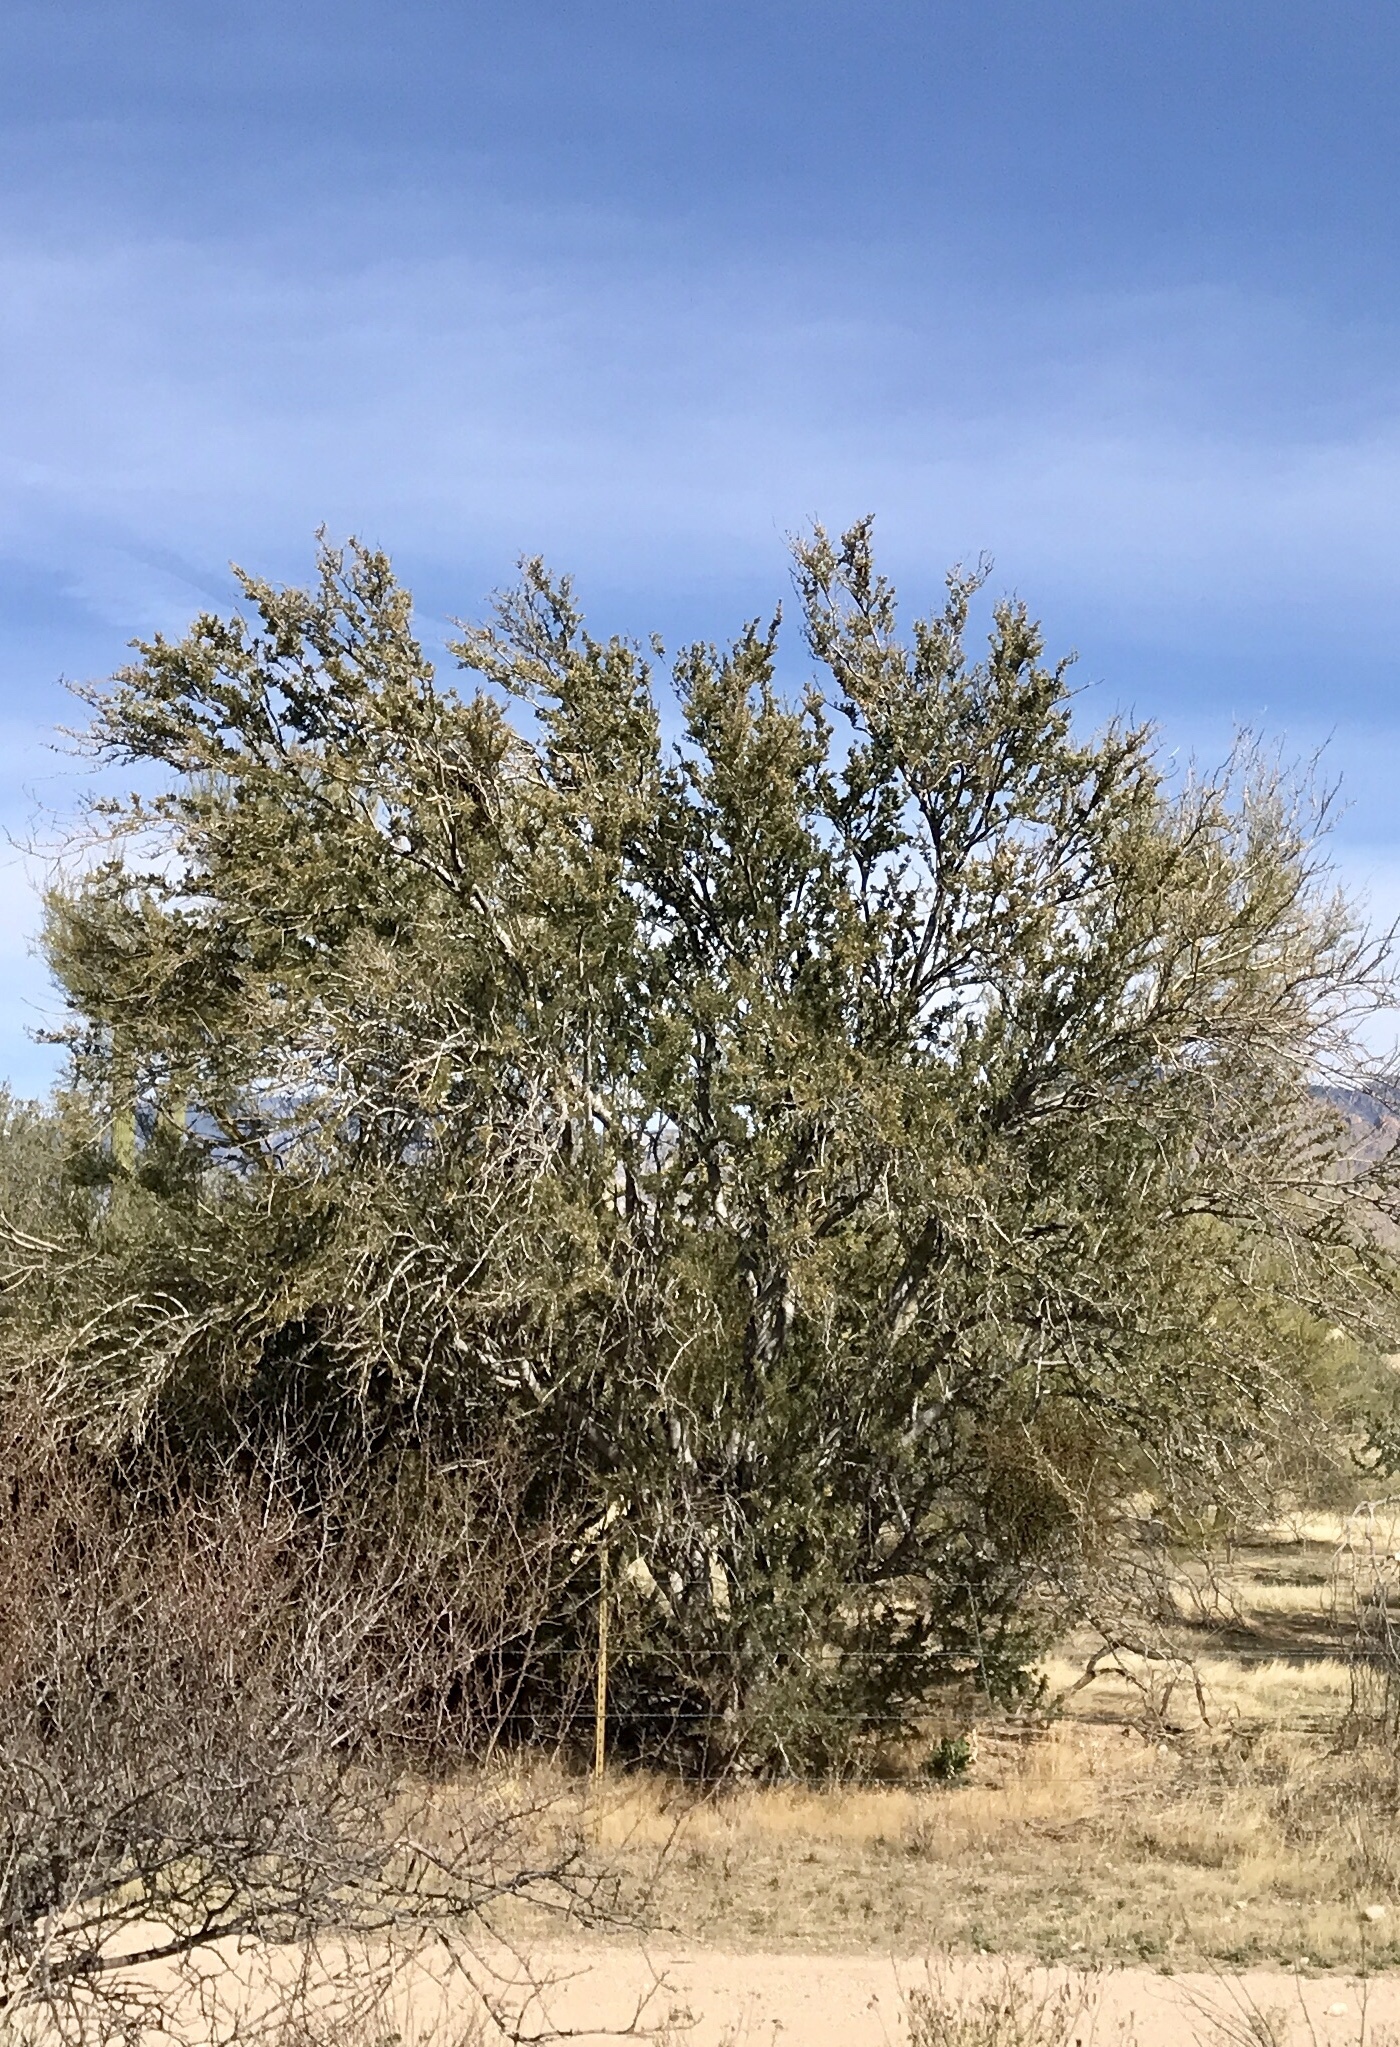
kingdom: Plantae
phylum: Tracheophyta
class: Magnoliopsida
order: Fabales
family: Fabaceae
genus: Olneya
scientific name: Olneya tesota
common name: Desert ironwood
